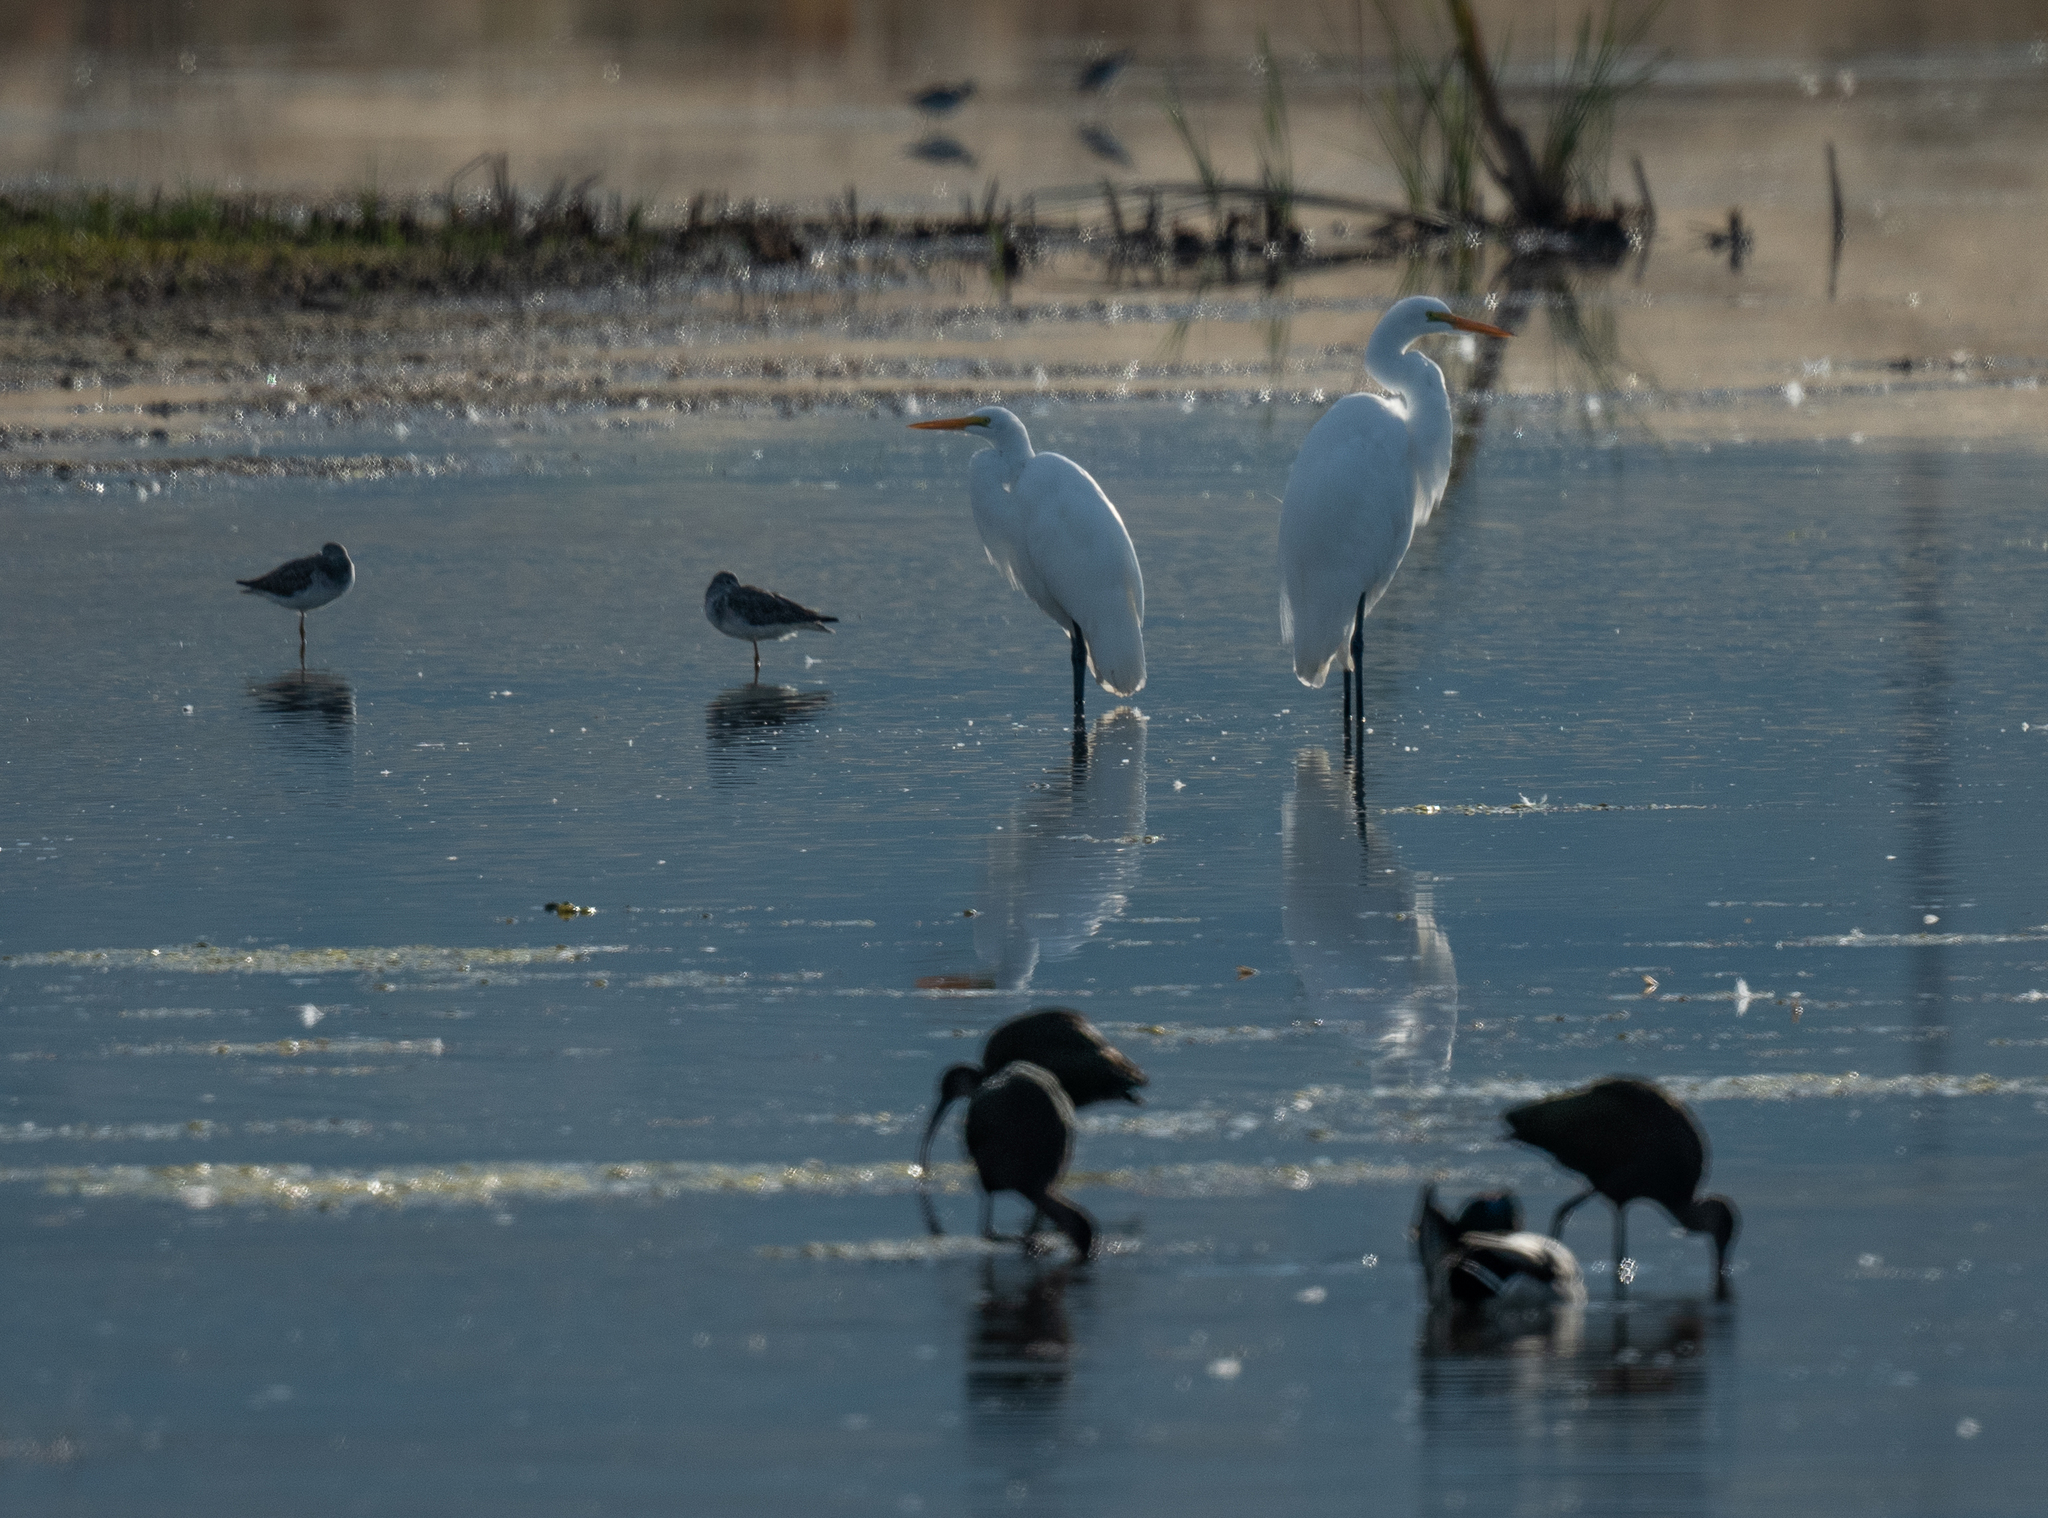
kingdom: Animalia
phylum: Chordata
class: Aves
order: Pelecaniformes
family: Ardeidae
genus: Ardea
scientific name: Ardea alba
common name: Great egret
